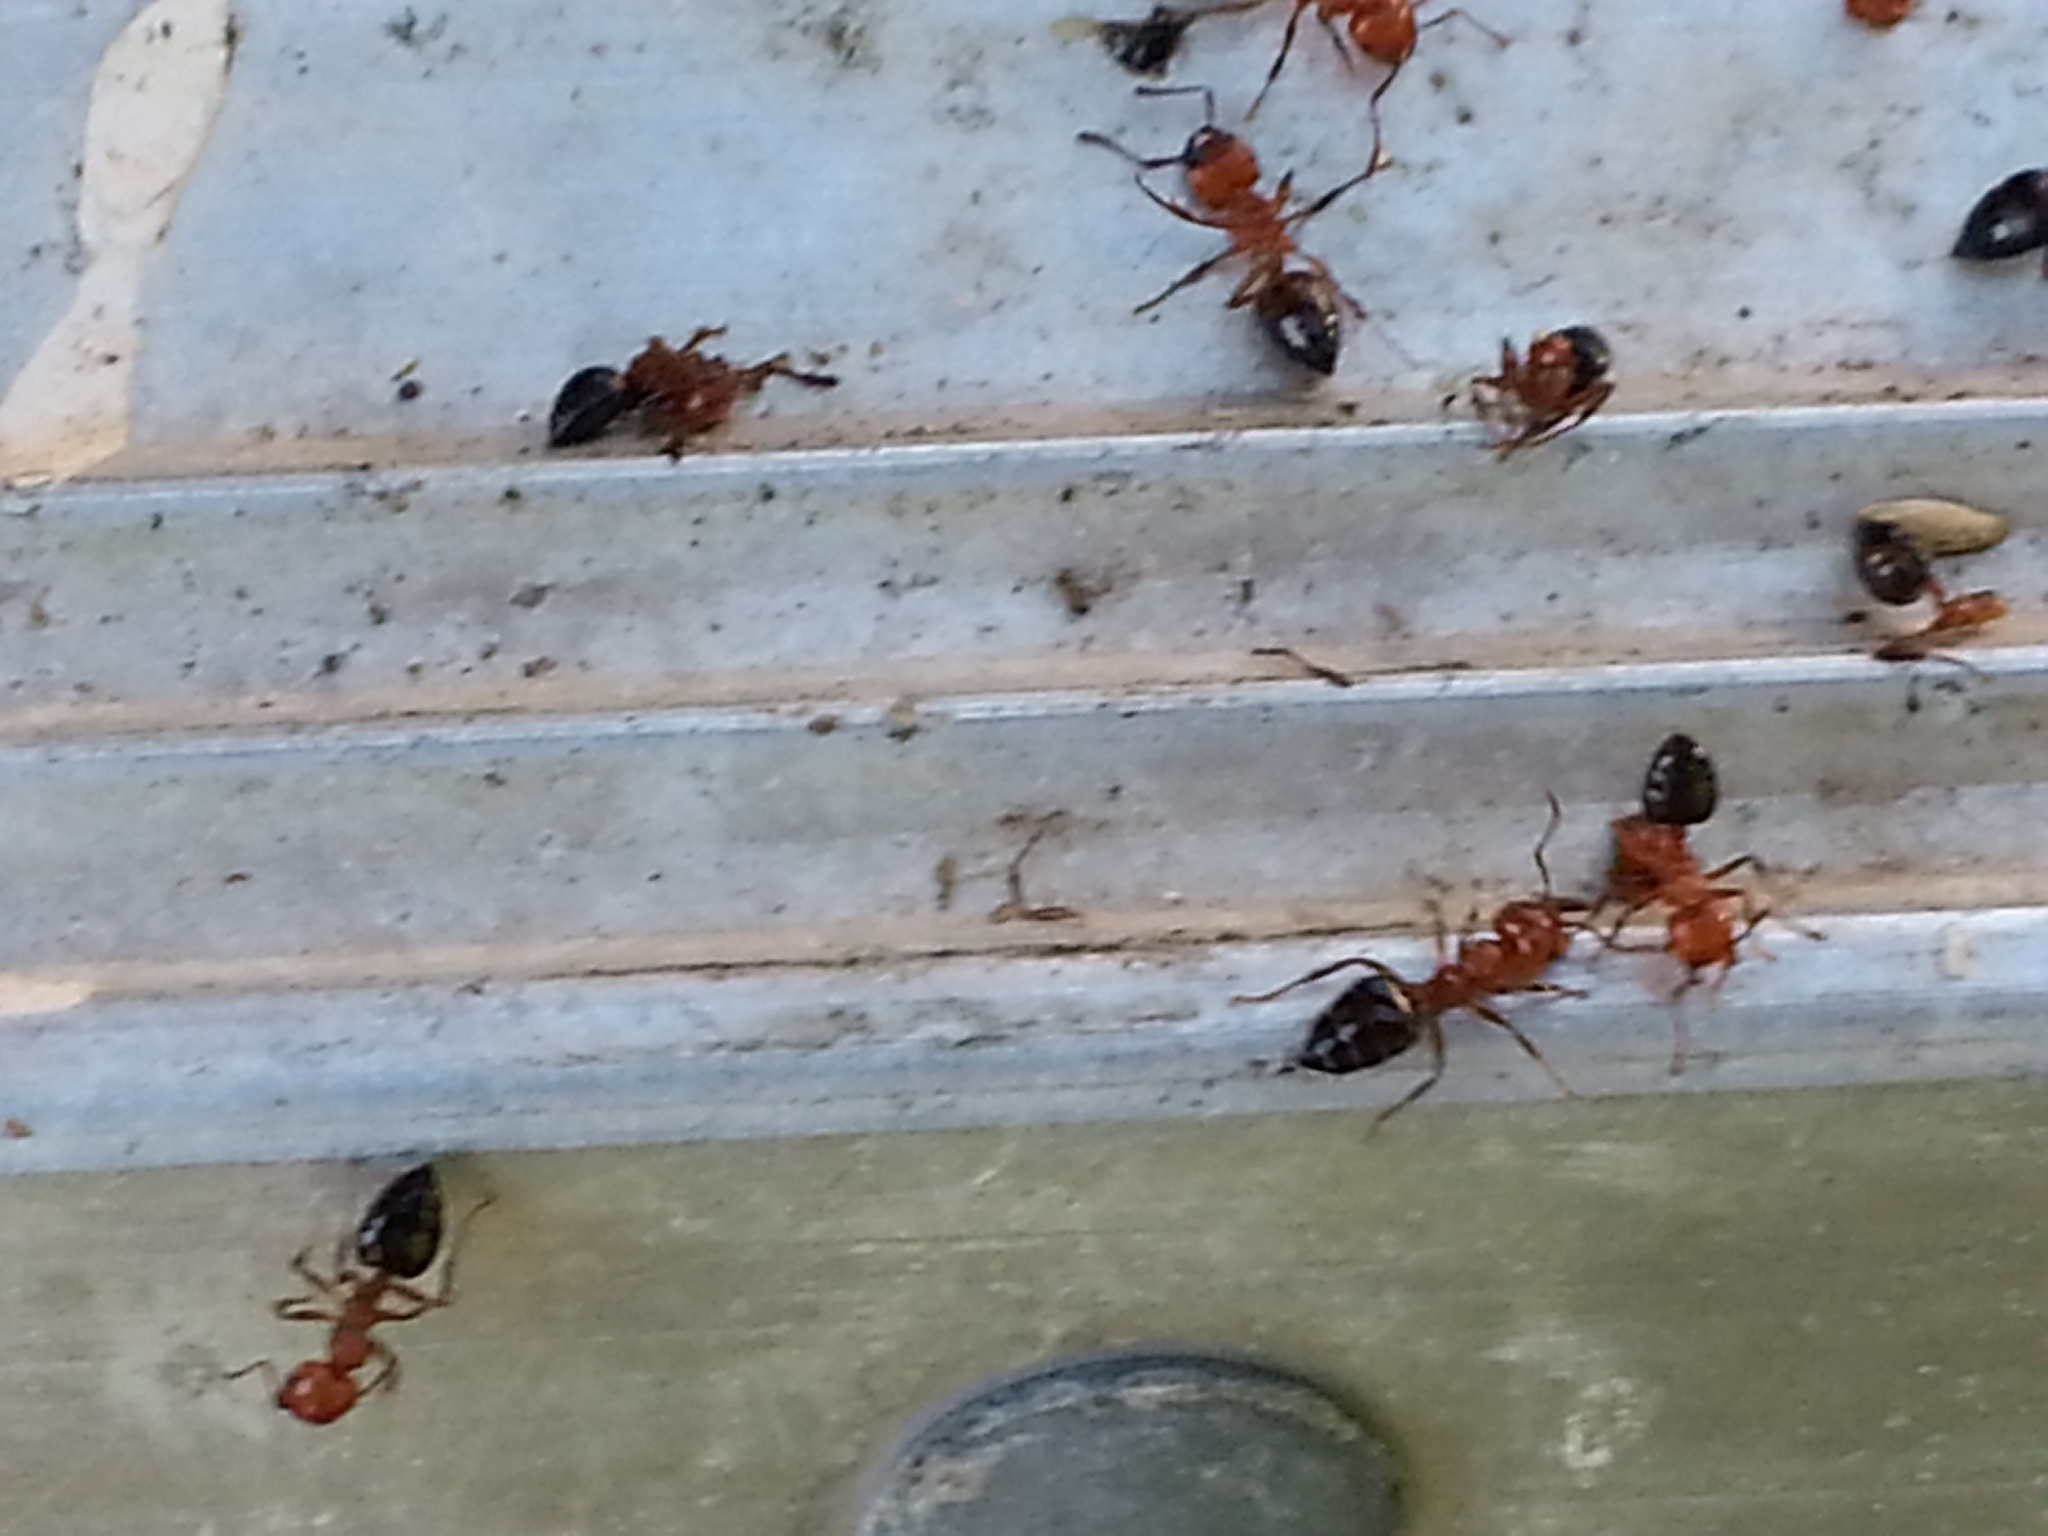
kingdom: Animalia
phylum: Arthropoda
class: Insecta
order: Hymenoptera
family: Formicidae
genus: Crematogaster
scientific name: Crematogaster laeviuscula
